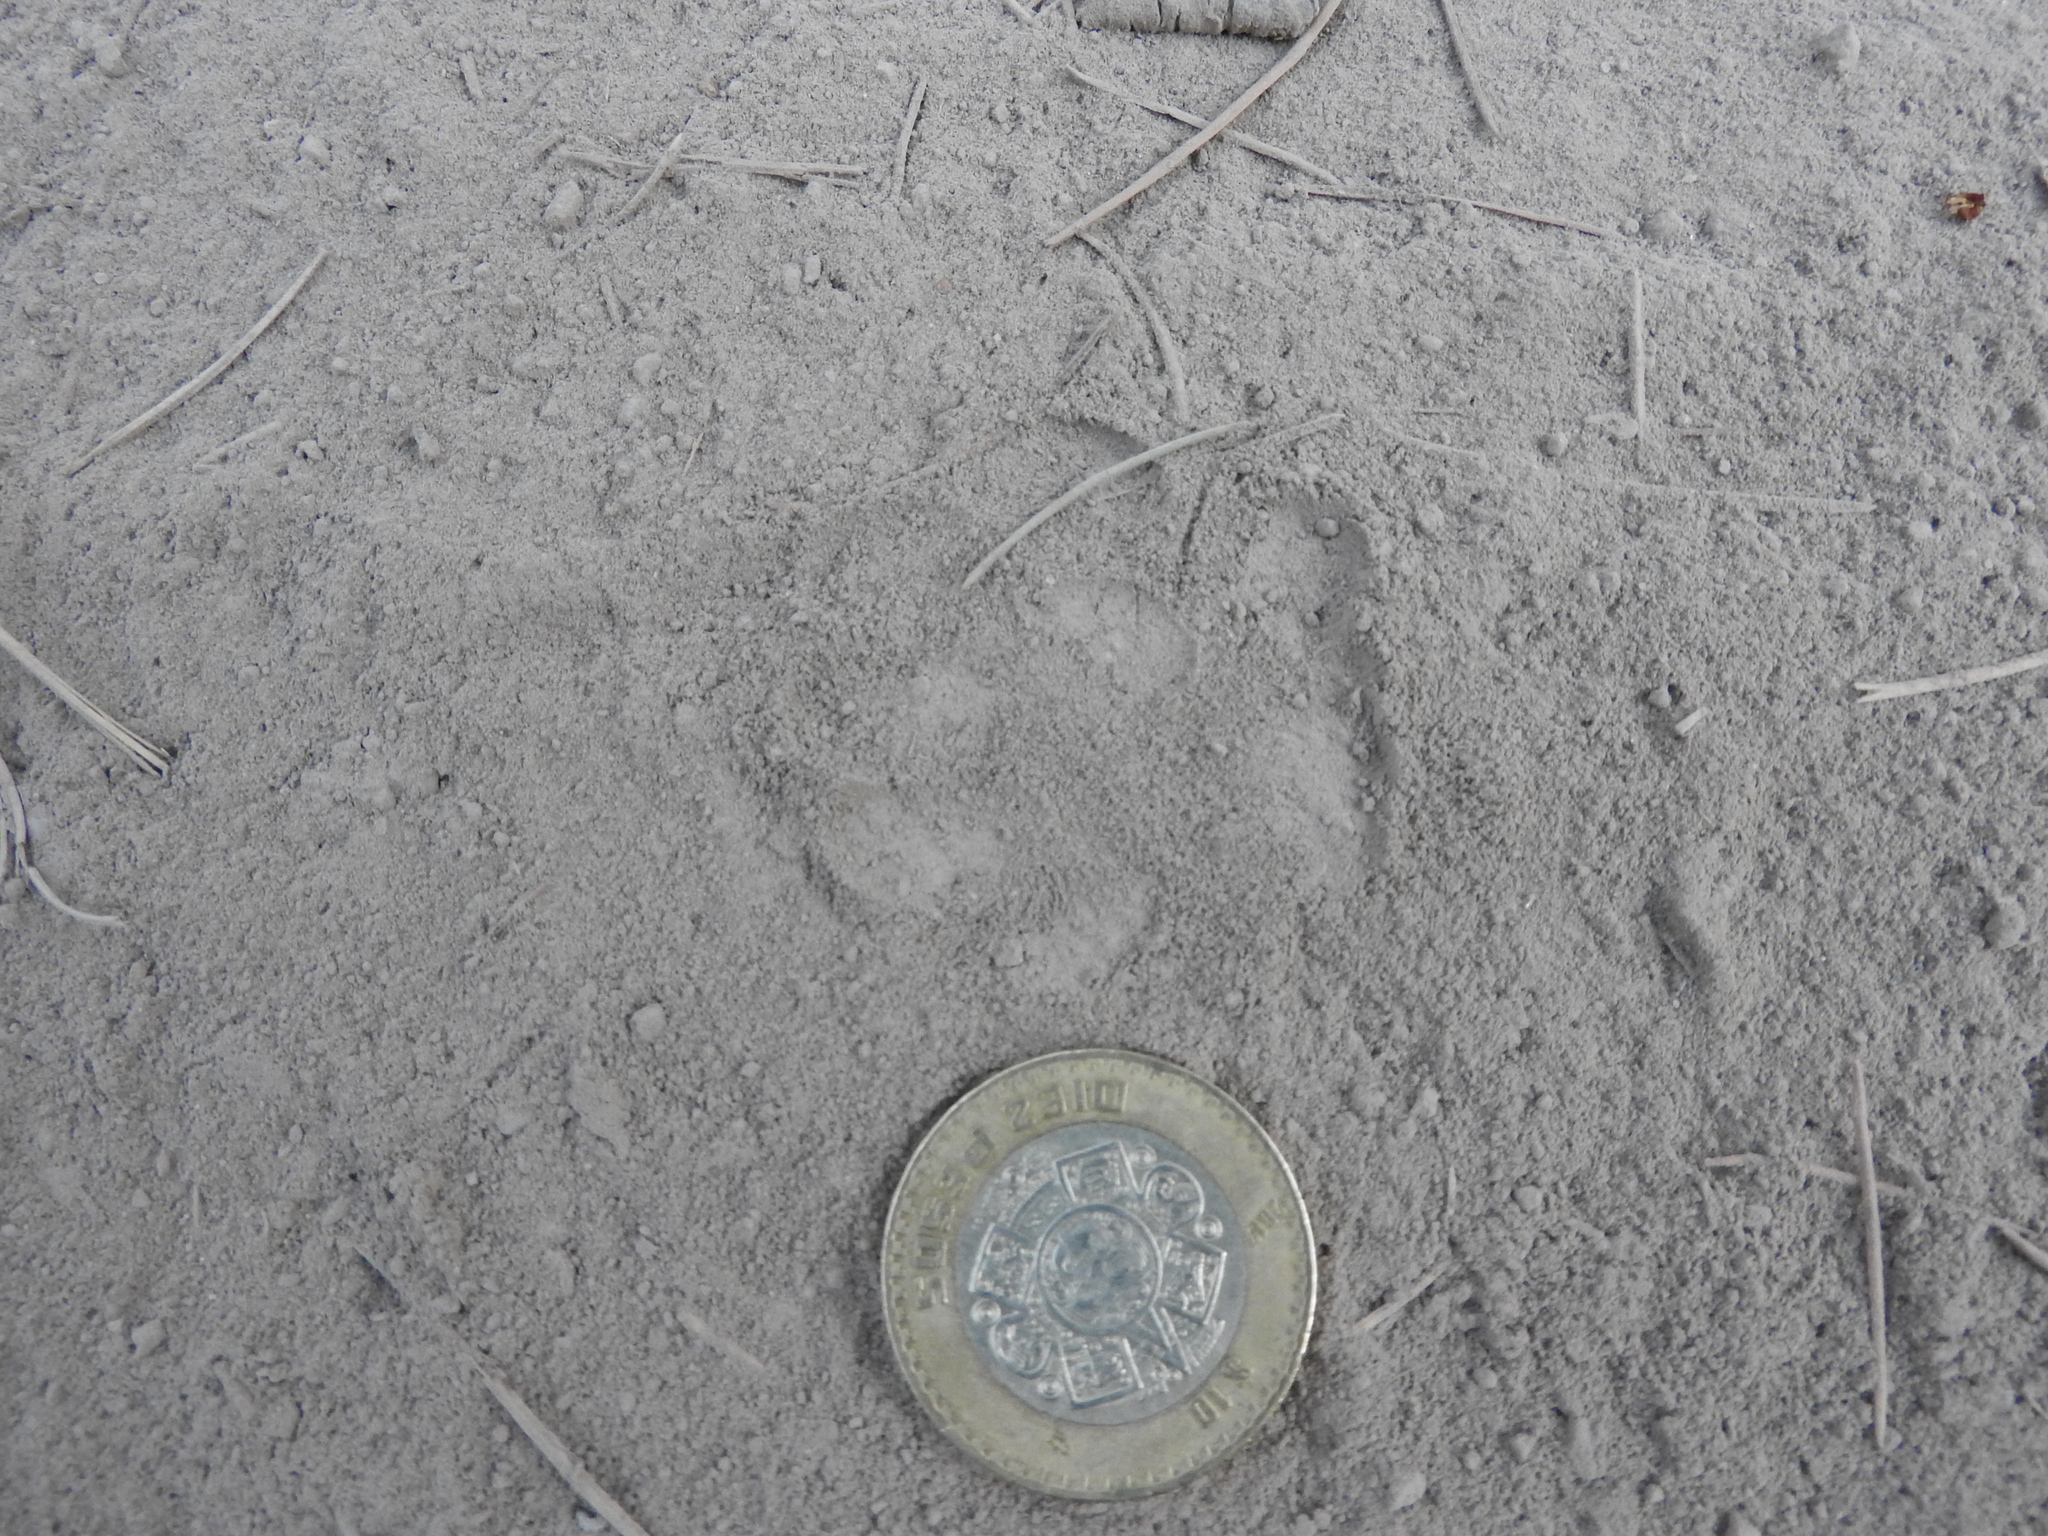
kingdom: Animalia
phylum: Chordata
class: Mammalia
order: Carnivora
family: Canidae
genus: Urocyon
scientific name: Urocyon cinereoargenteus
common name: Gray fox
